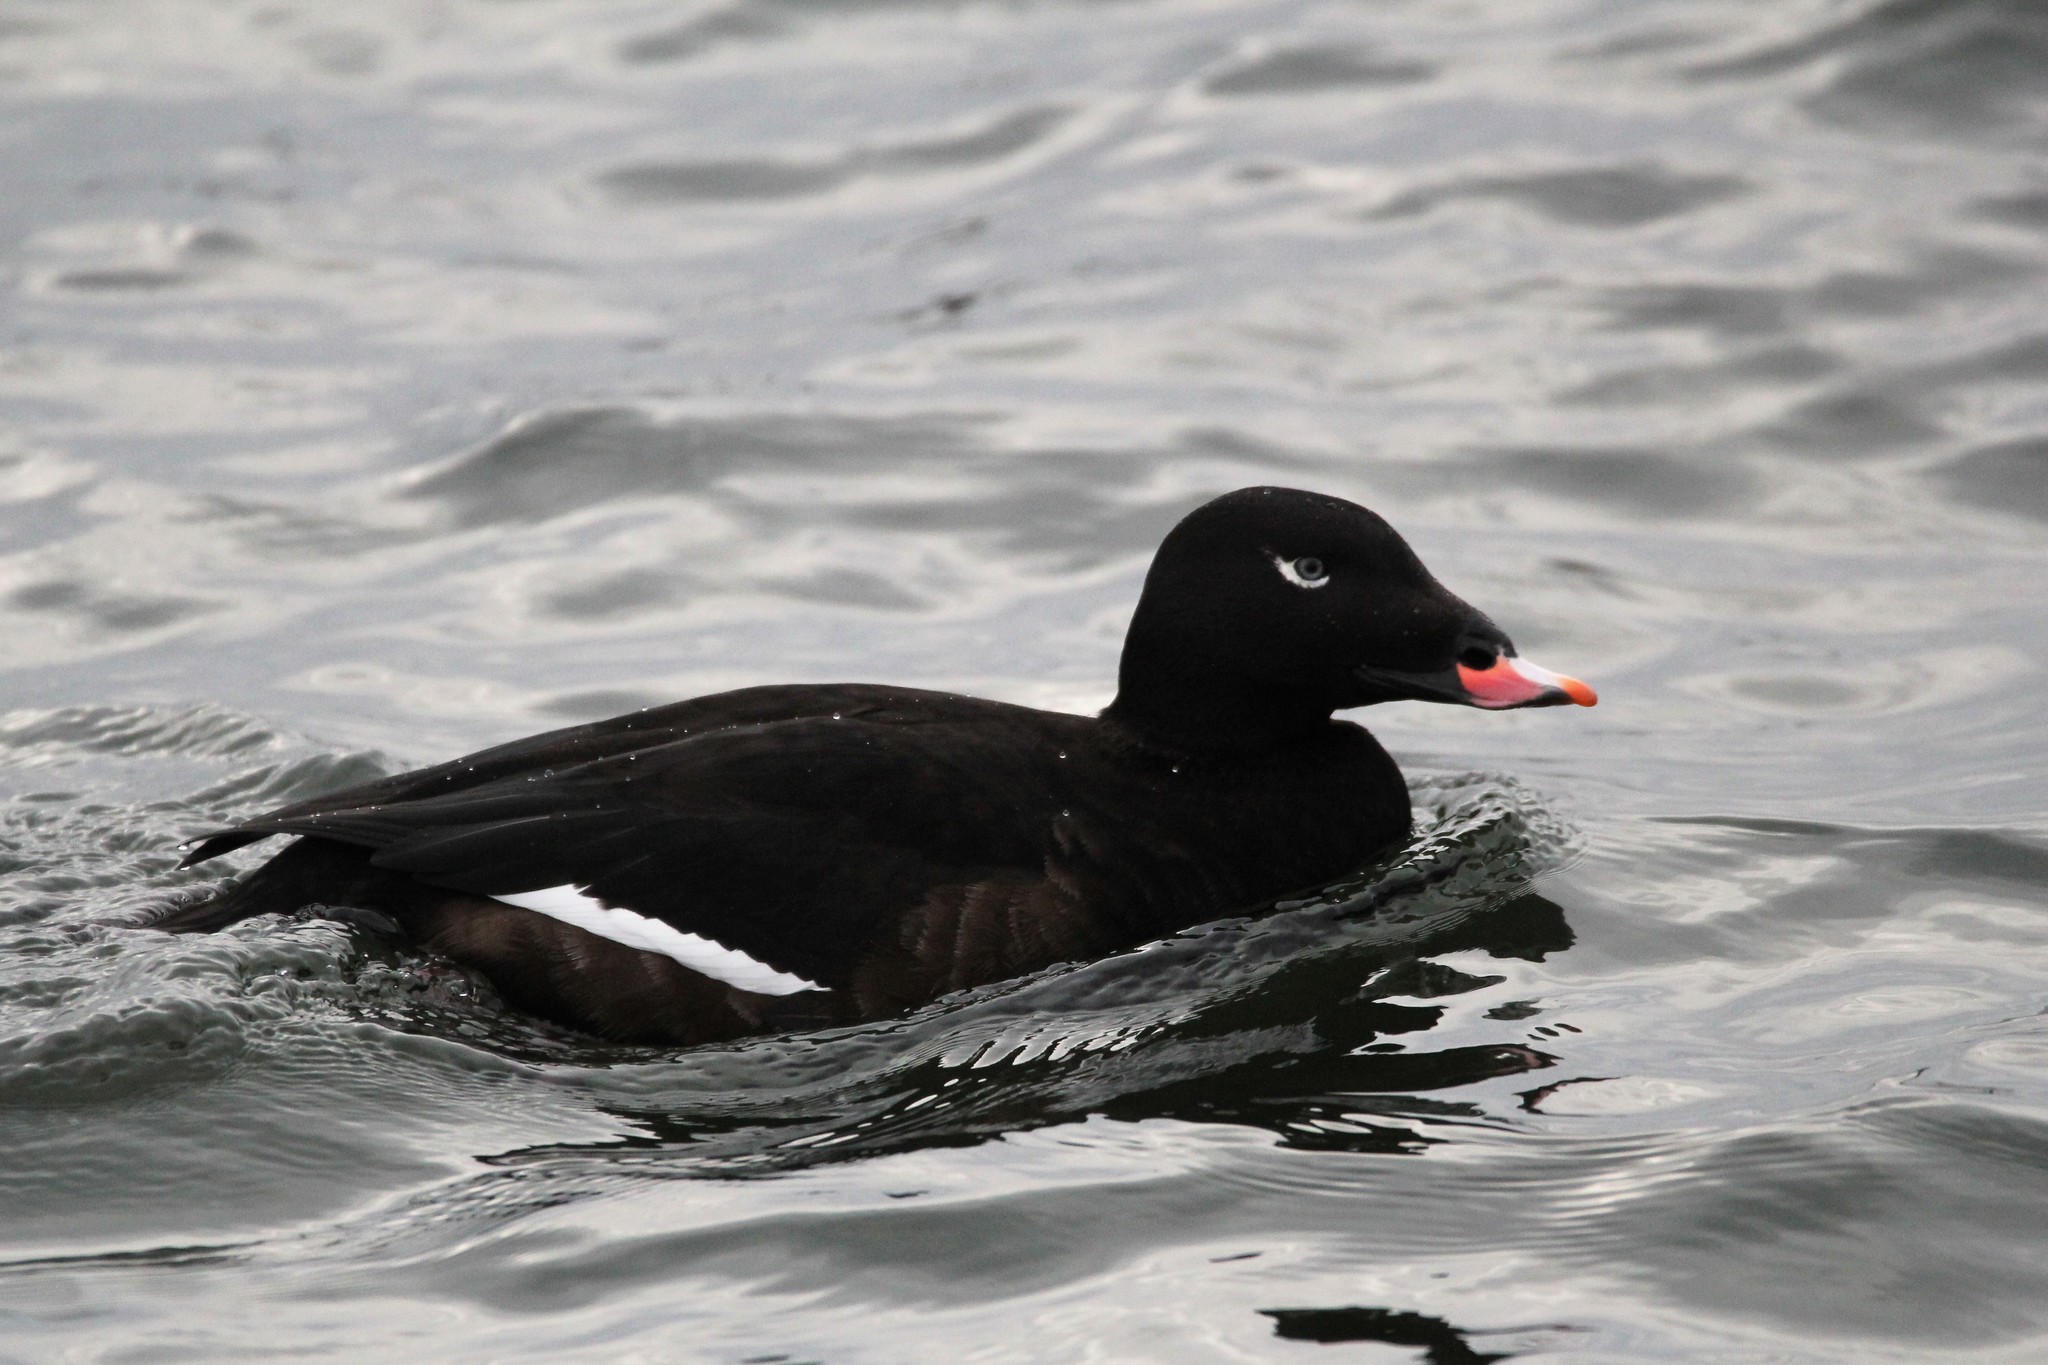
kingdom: Animalia
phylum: Chordata
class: Aves
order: Anseriformes
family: Anatidae
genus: Melanitta
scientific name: Melanitta deglandi
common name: White-winged scoter
